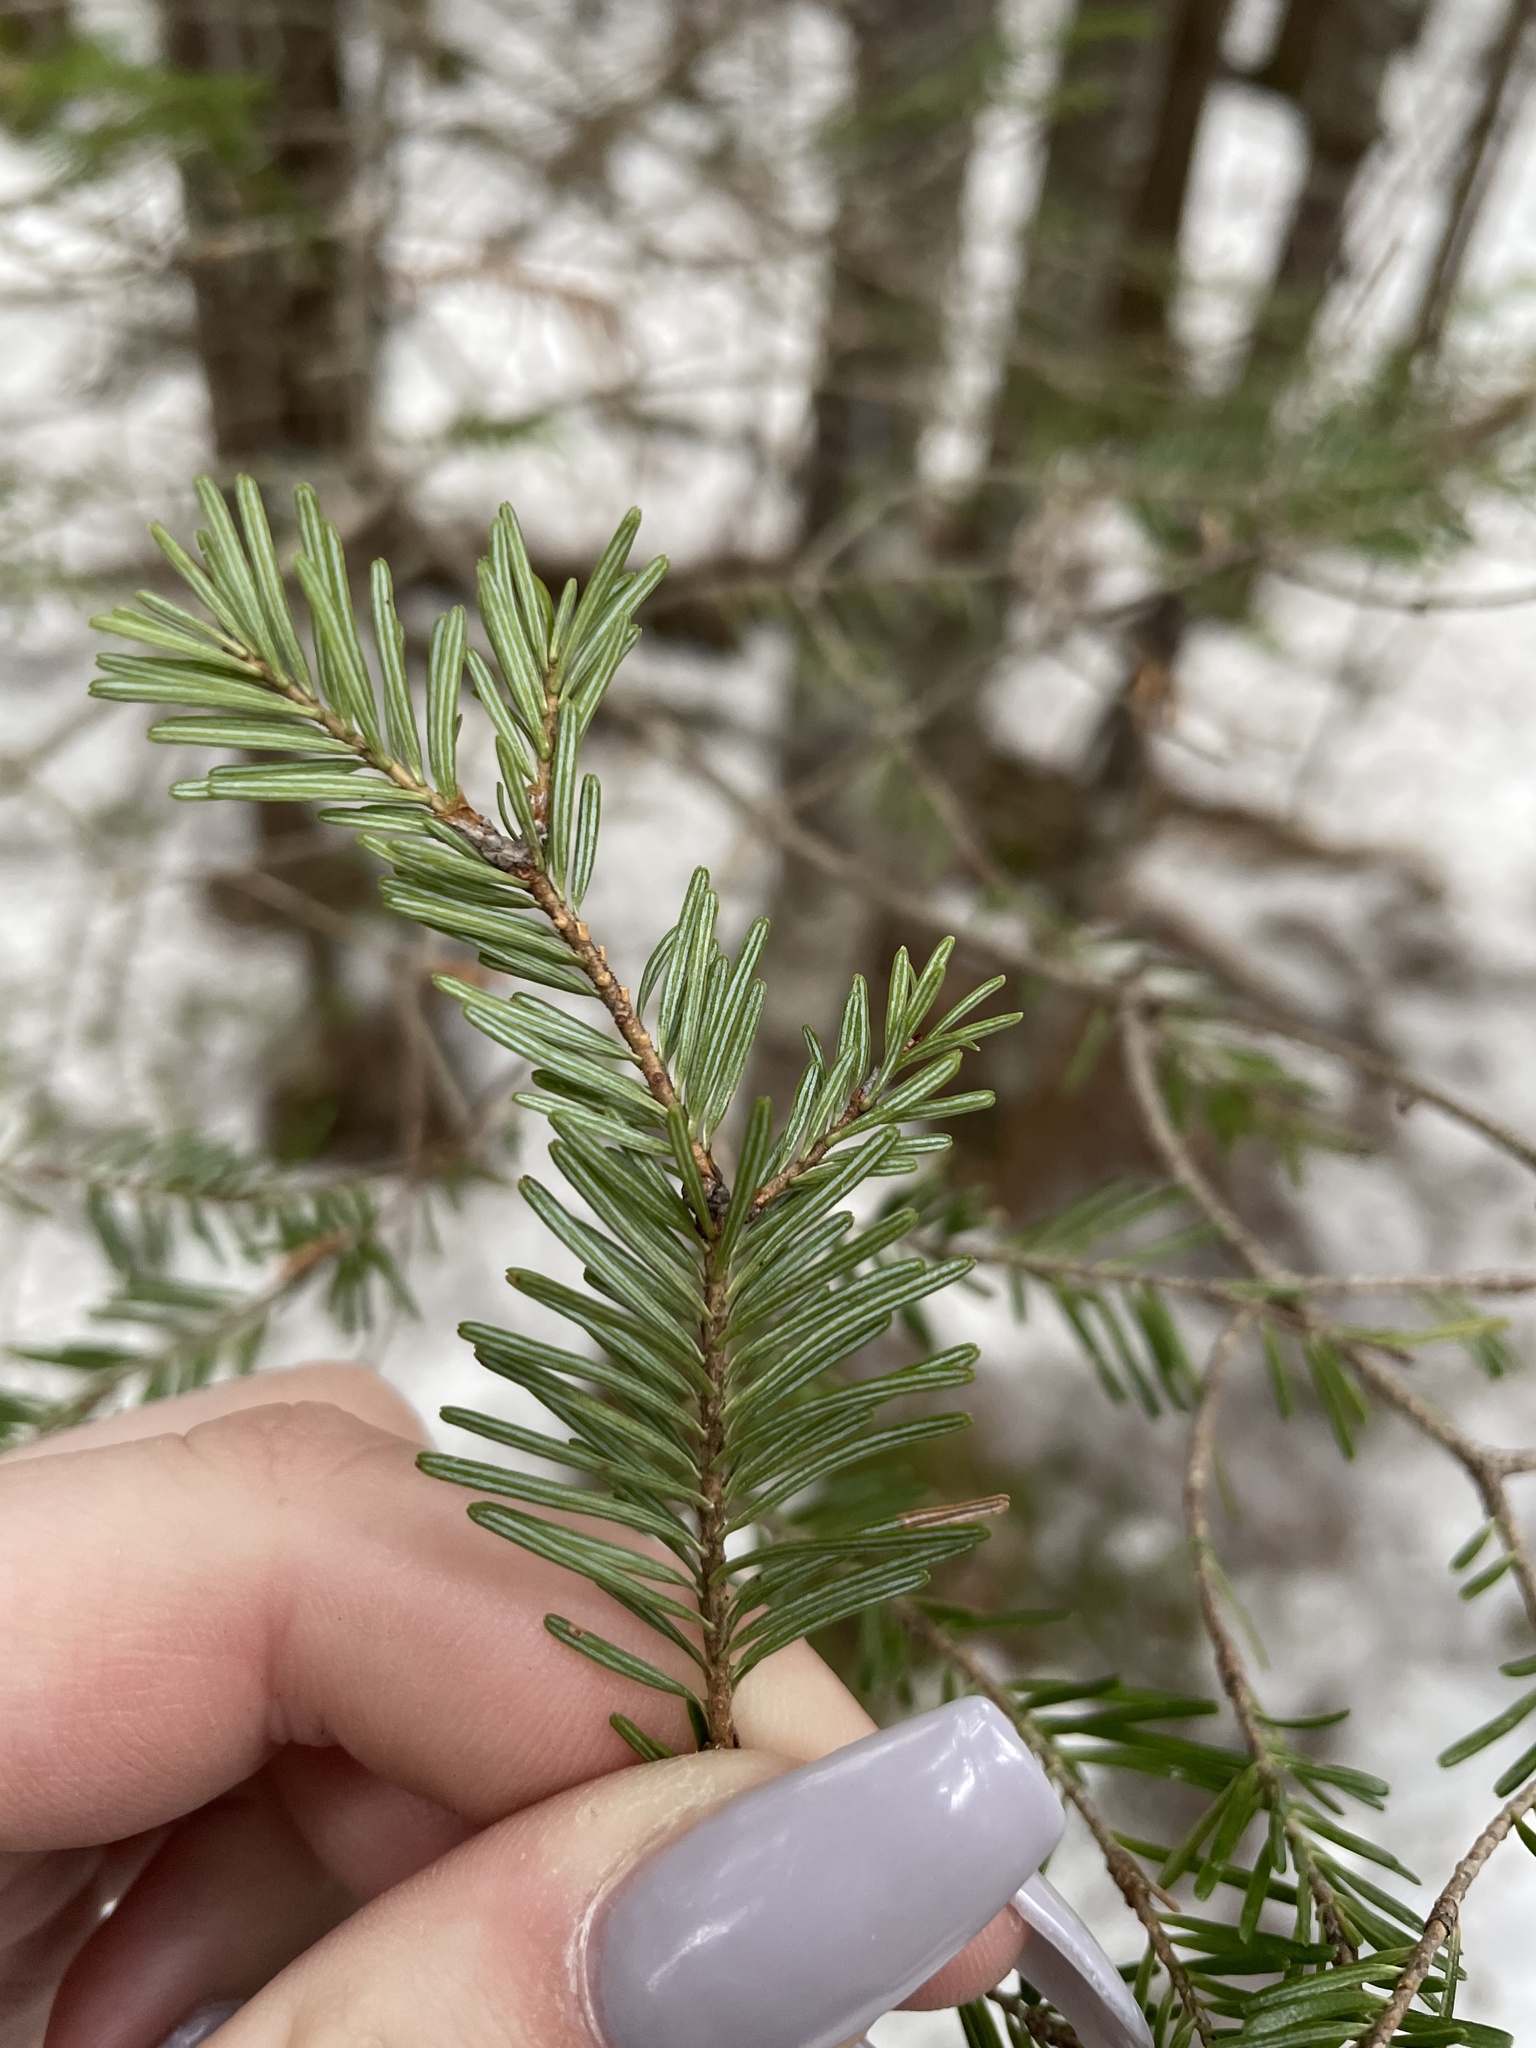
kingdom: Plantae
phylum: Tracheophyta
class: Pinopsida
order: Pinales
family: Pinaceae
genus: Abies
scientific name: Abies balsamea
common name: Balsam fir
